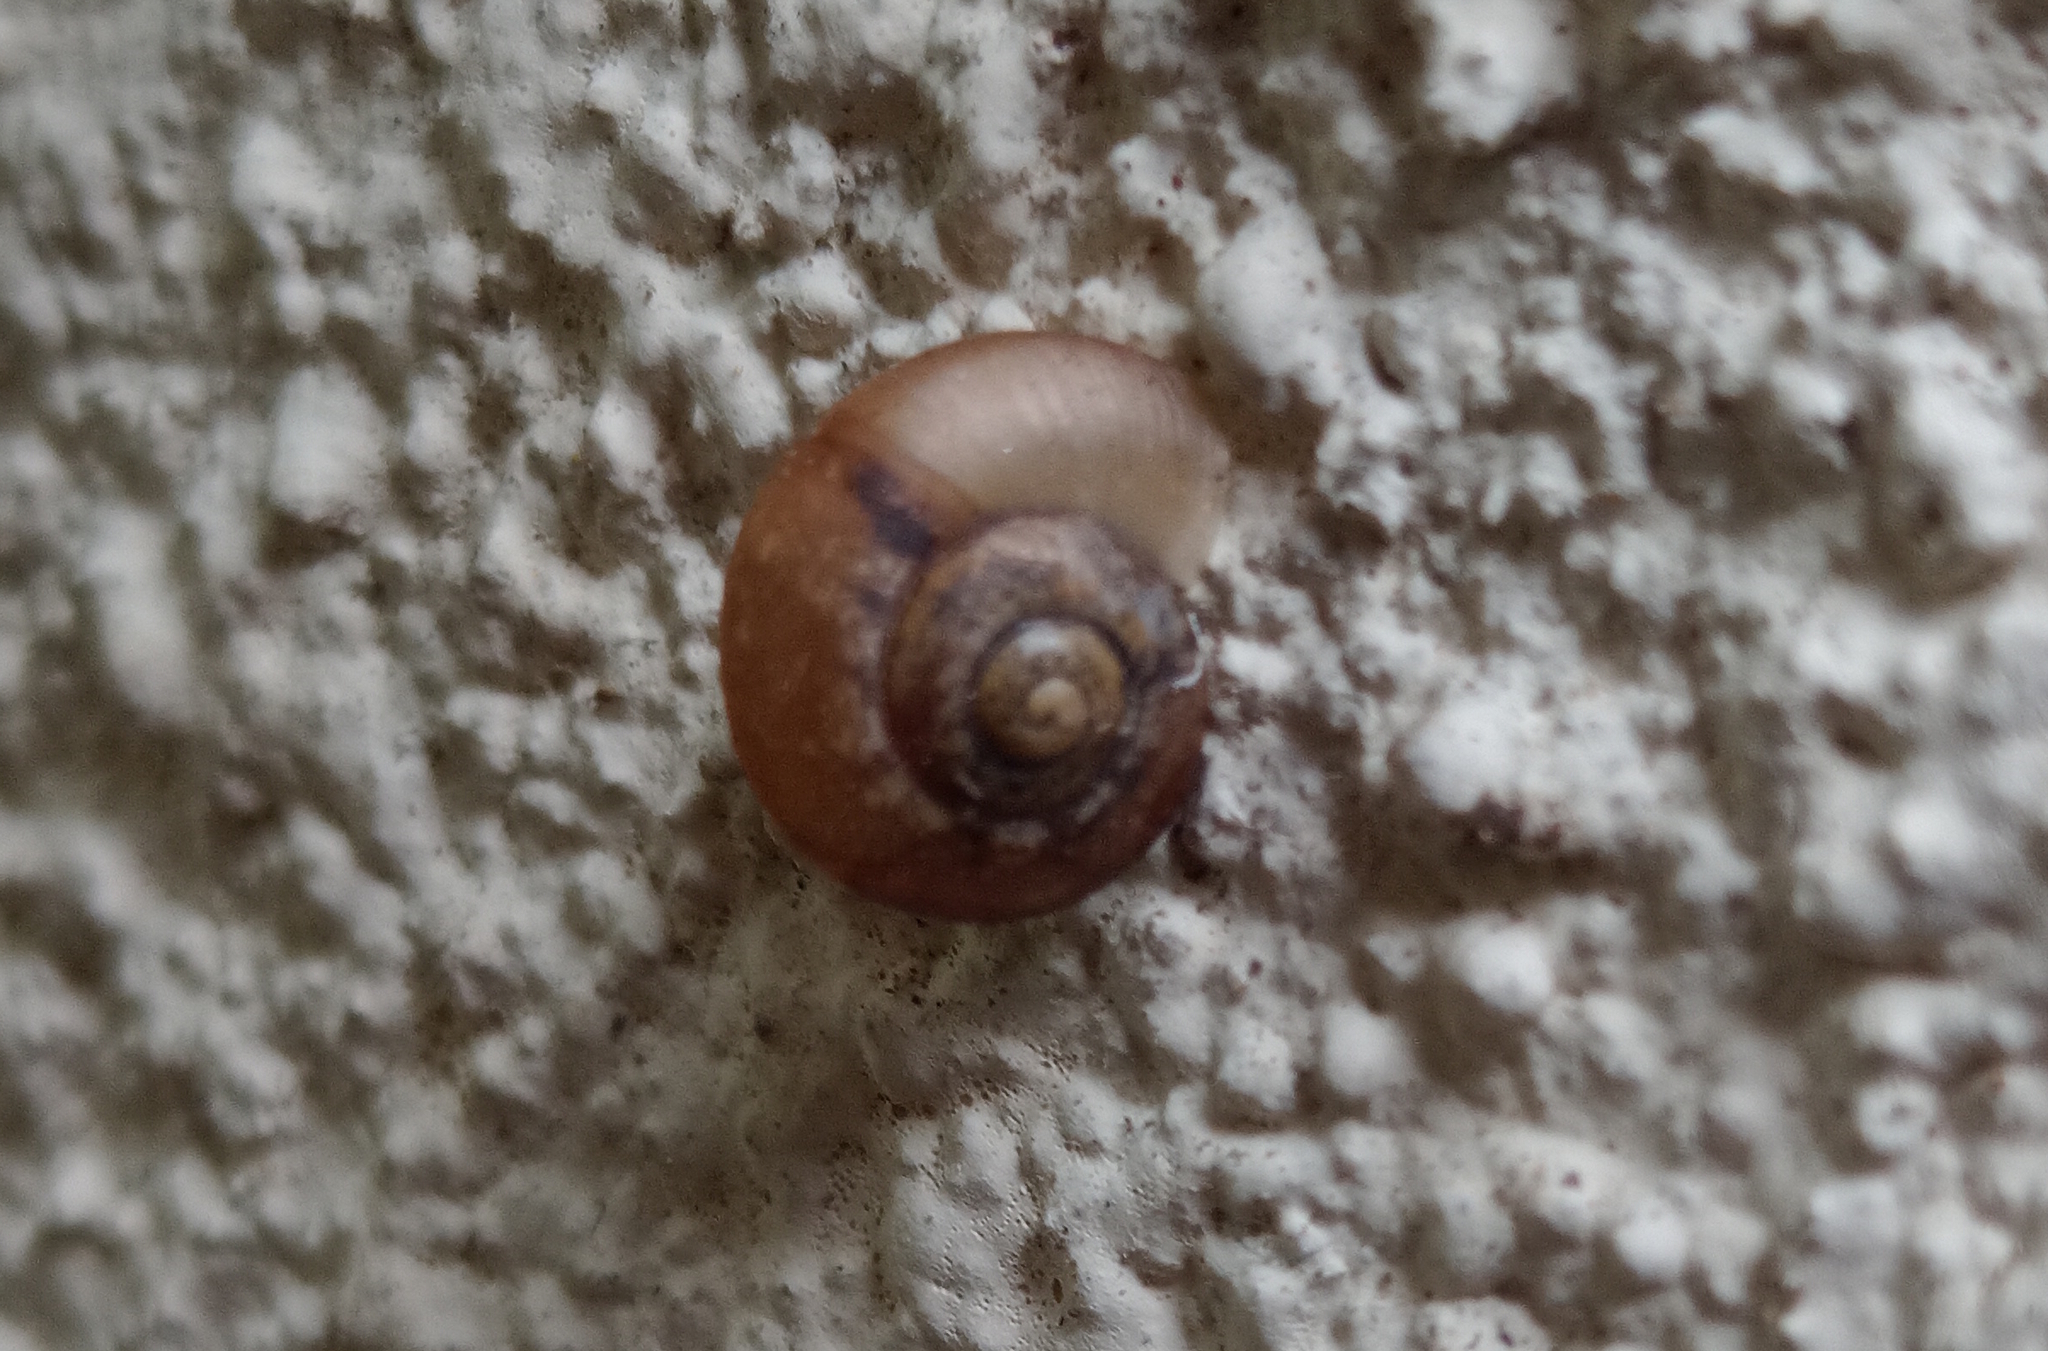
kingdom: Animalia
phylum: Mollusca
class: Gastropoda
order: Stylommatophora
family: Camaenidae
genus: Bradybaena
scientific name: Bradybaena similaris
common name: Asian trampsnail
